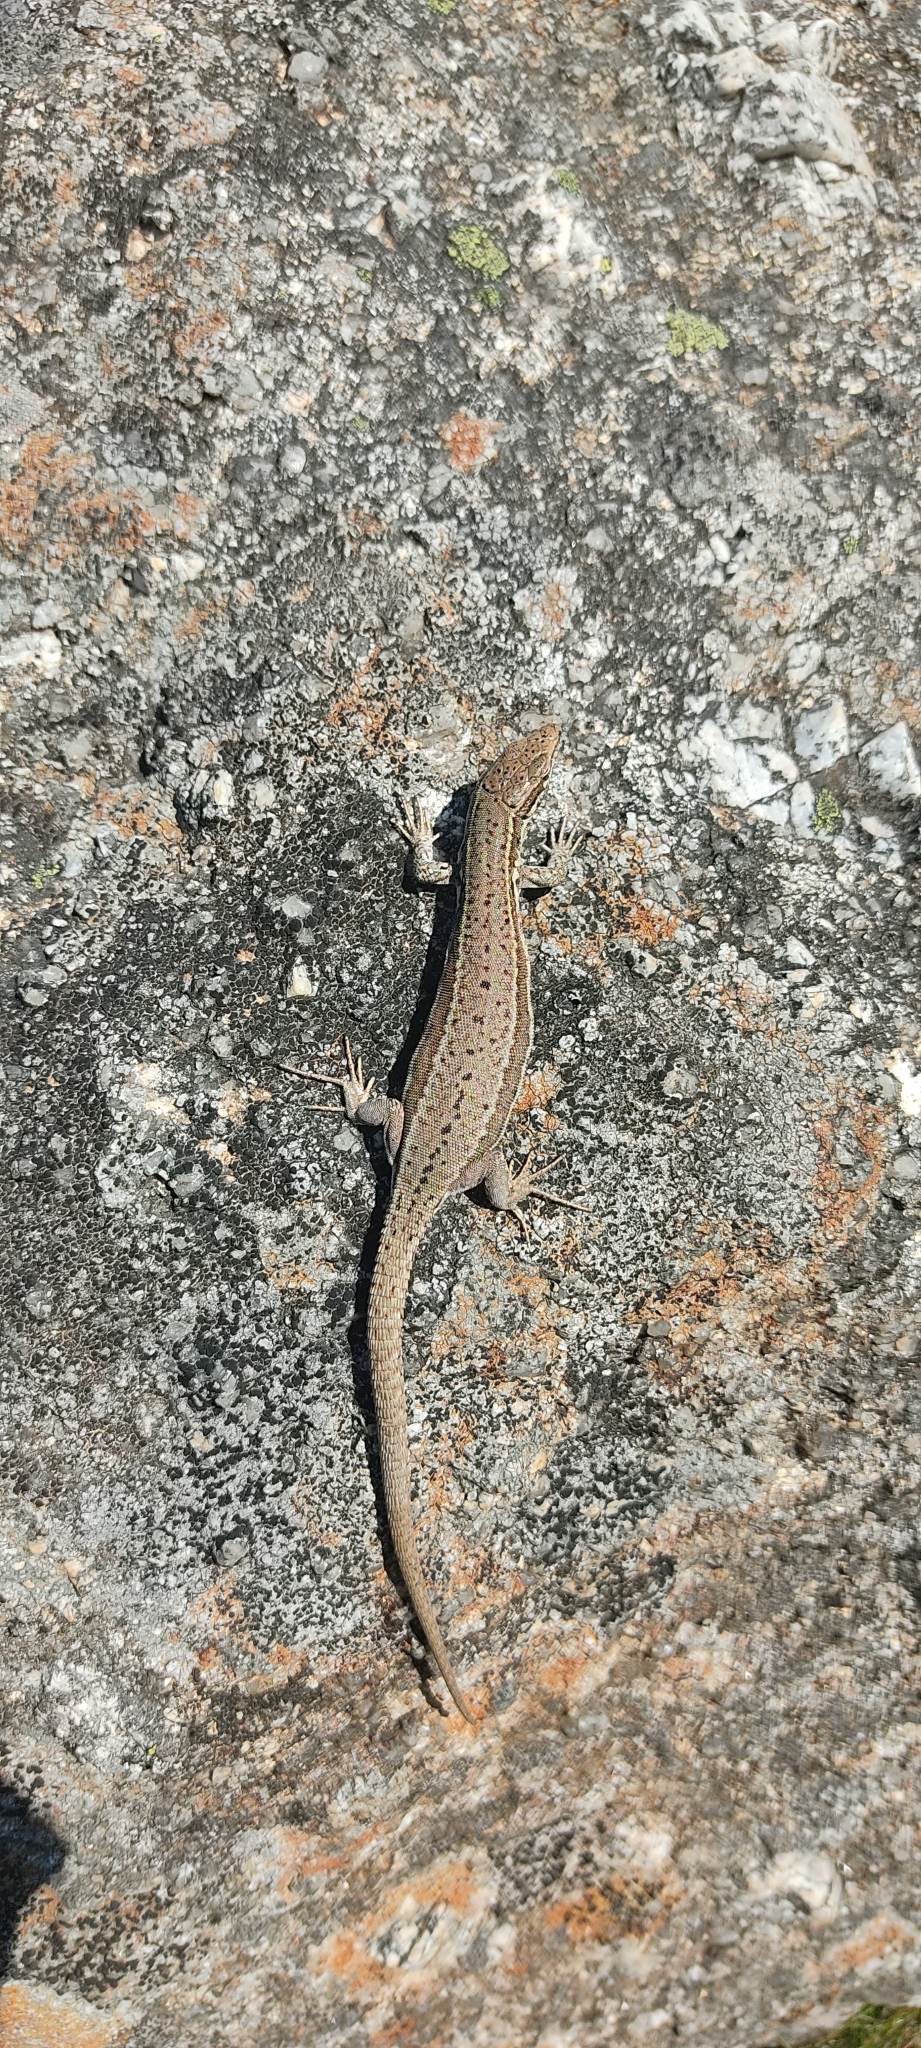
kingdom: Animalia
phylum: Chordata
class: Squamata
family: Lacertidae
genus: Podarcis
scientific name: Podarcis muralis
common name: Common wall lizard
